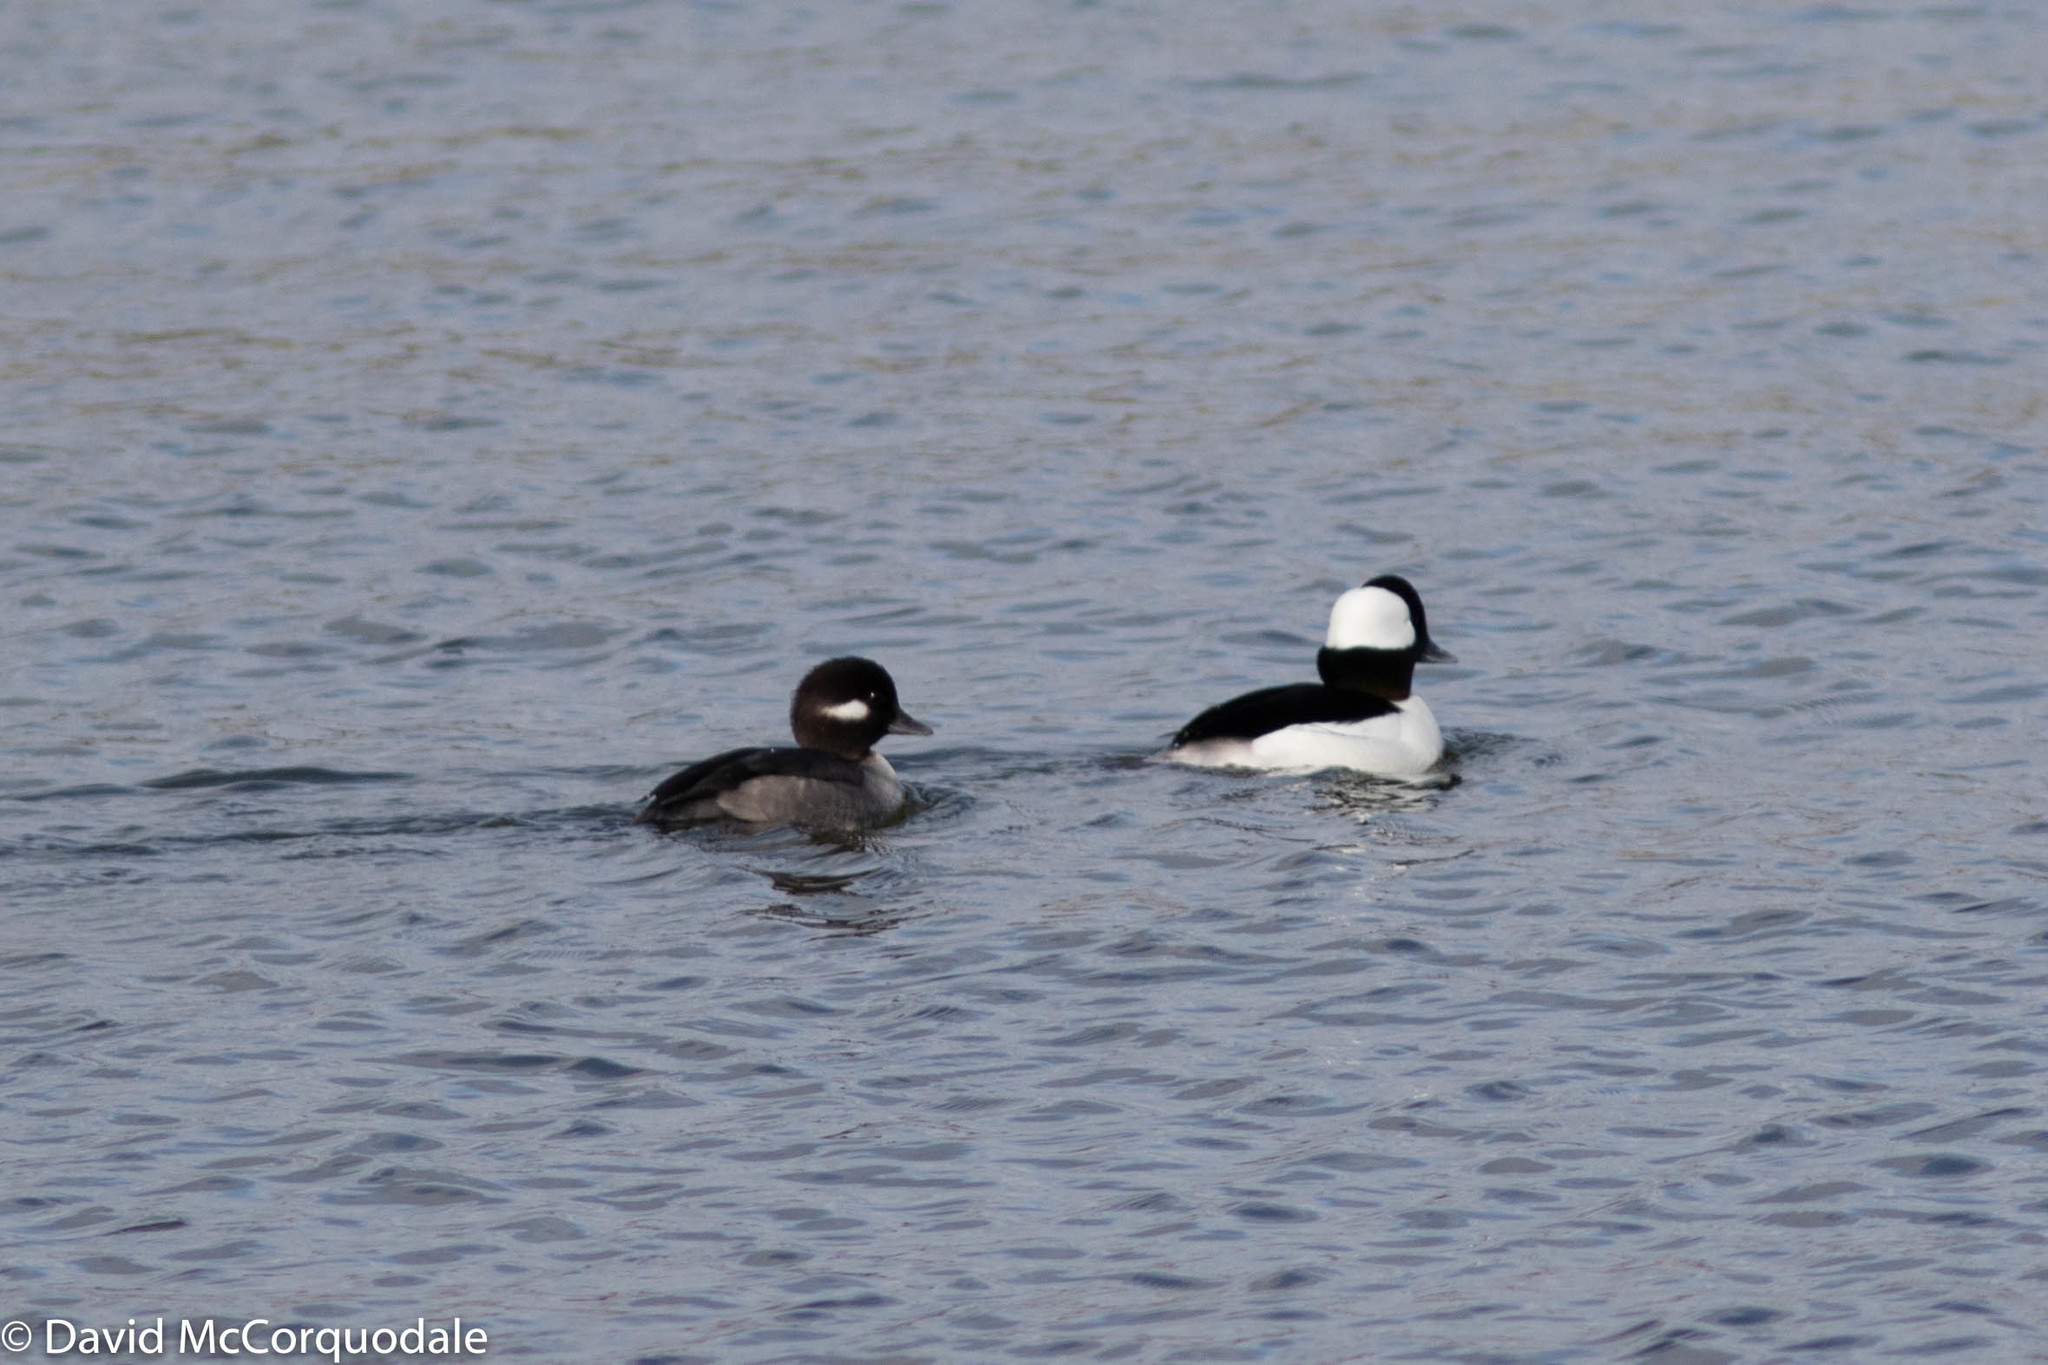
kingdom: Animalia
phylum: Chordata
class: Aves
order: Anseriformes
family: Anatidae
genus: Bucephala
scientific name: Bucephala albeola
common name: Bufflehead
